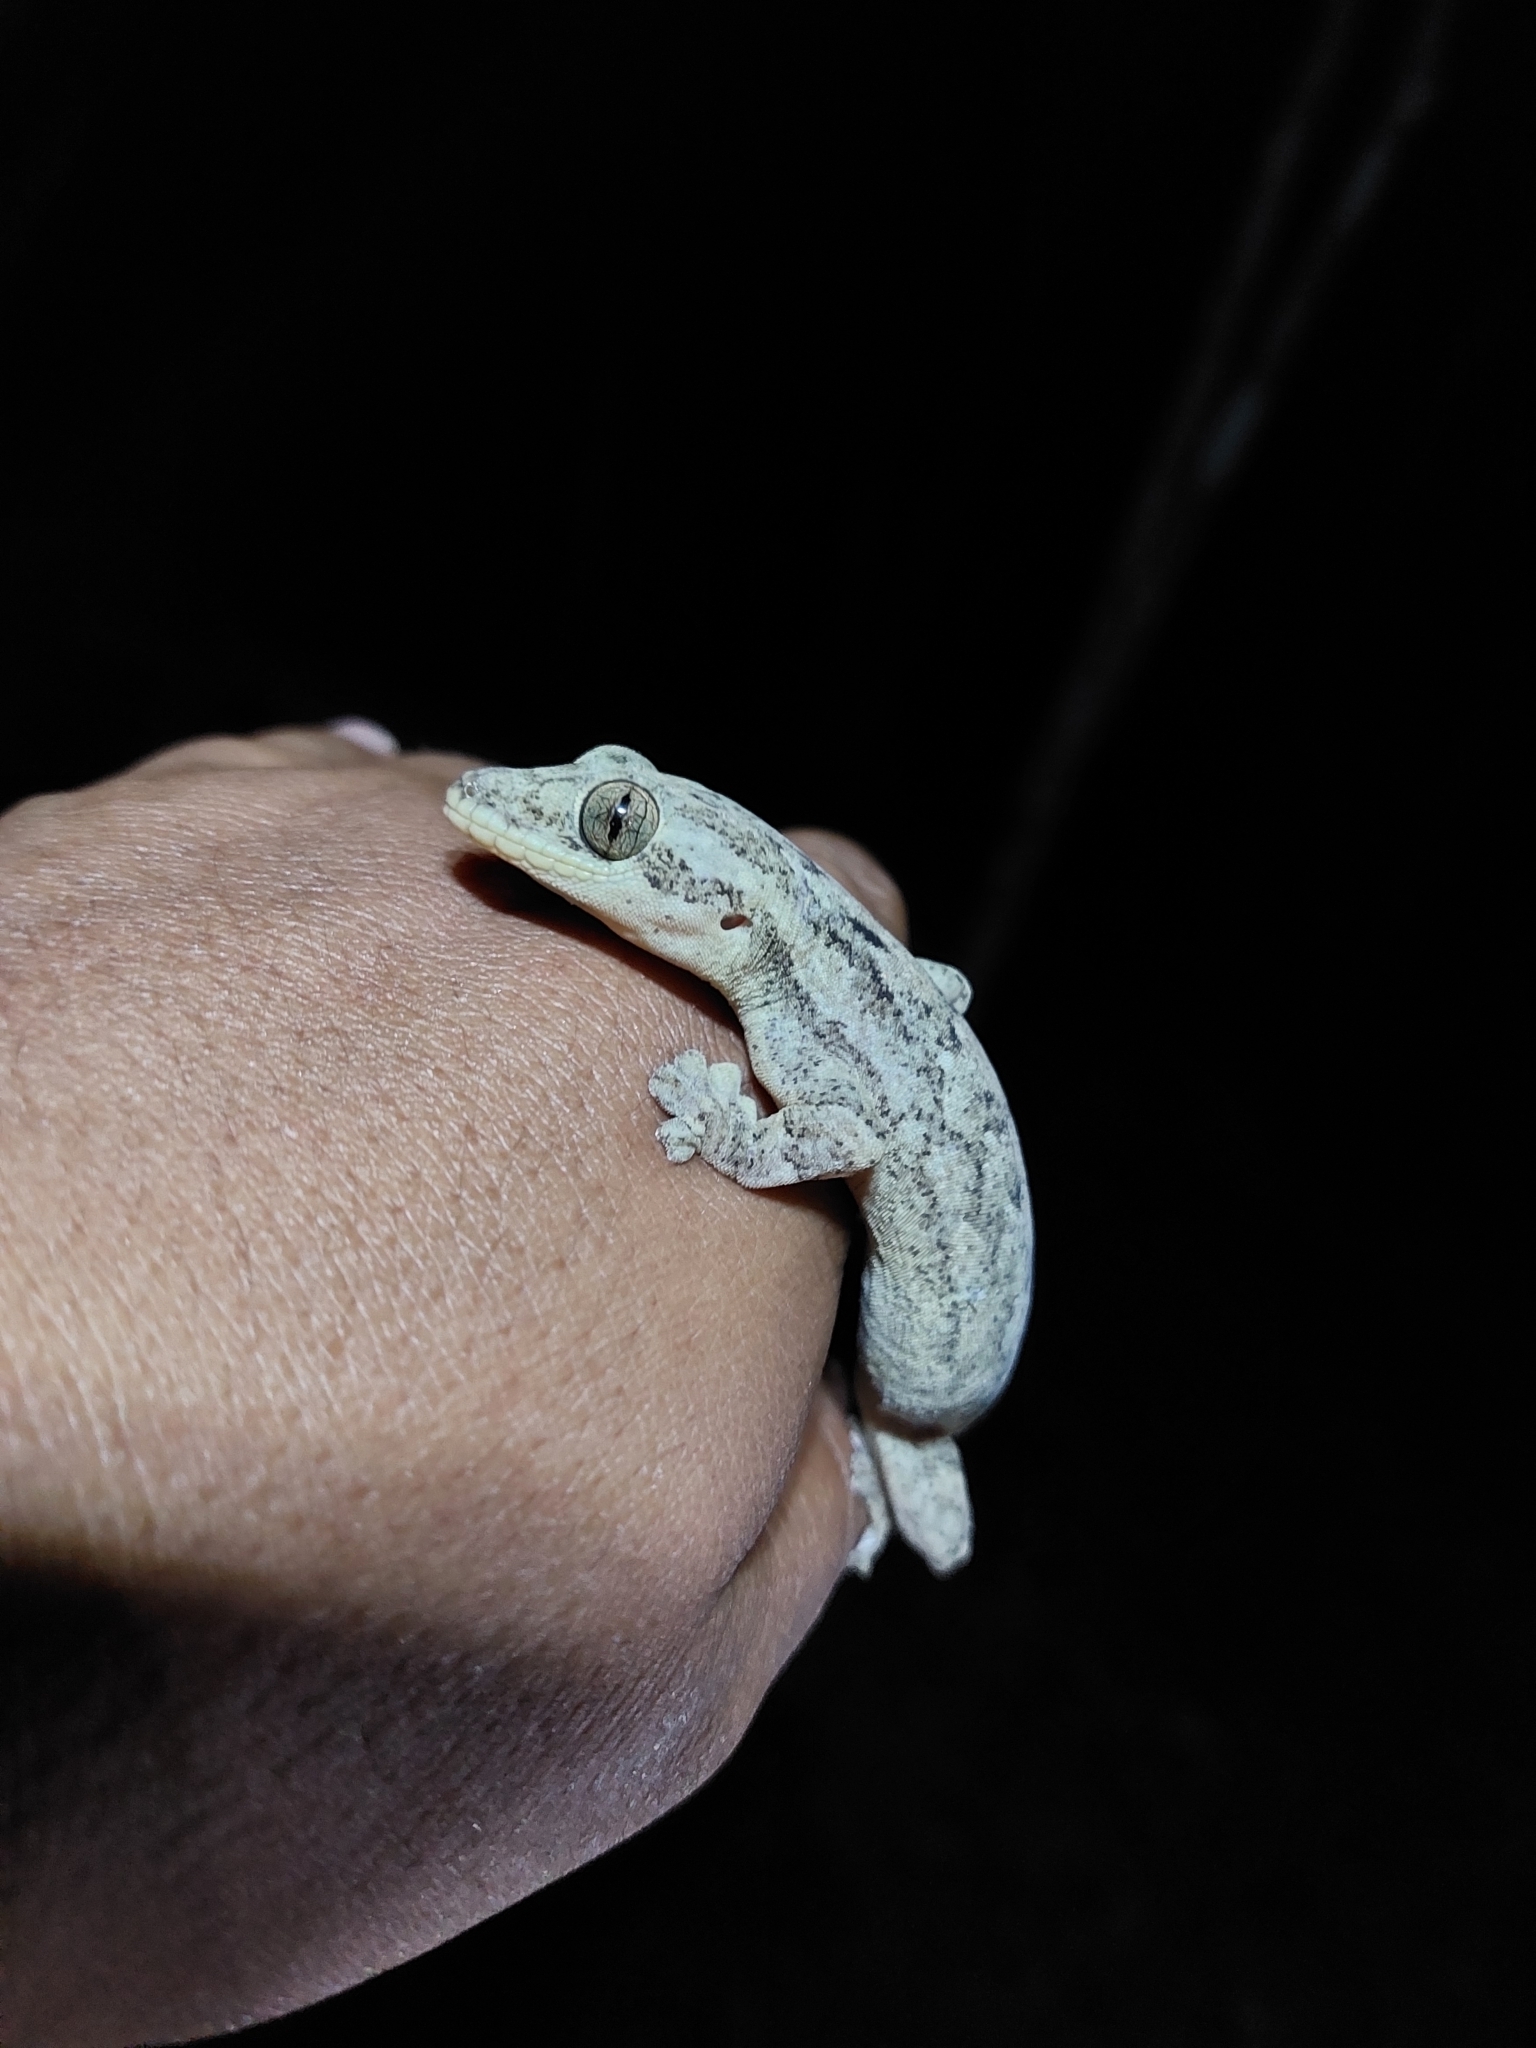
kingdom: Animalia
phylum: Chordata
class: Squamata
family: Phyllodactylidae
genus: Thecadactylus
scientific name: Thecadactylus rapicauda
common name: Turnip-tailed gecko
